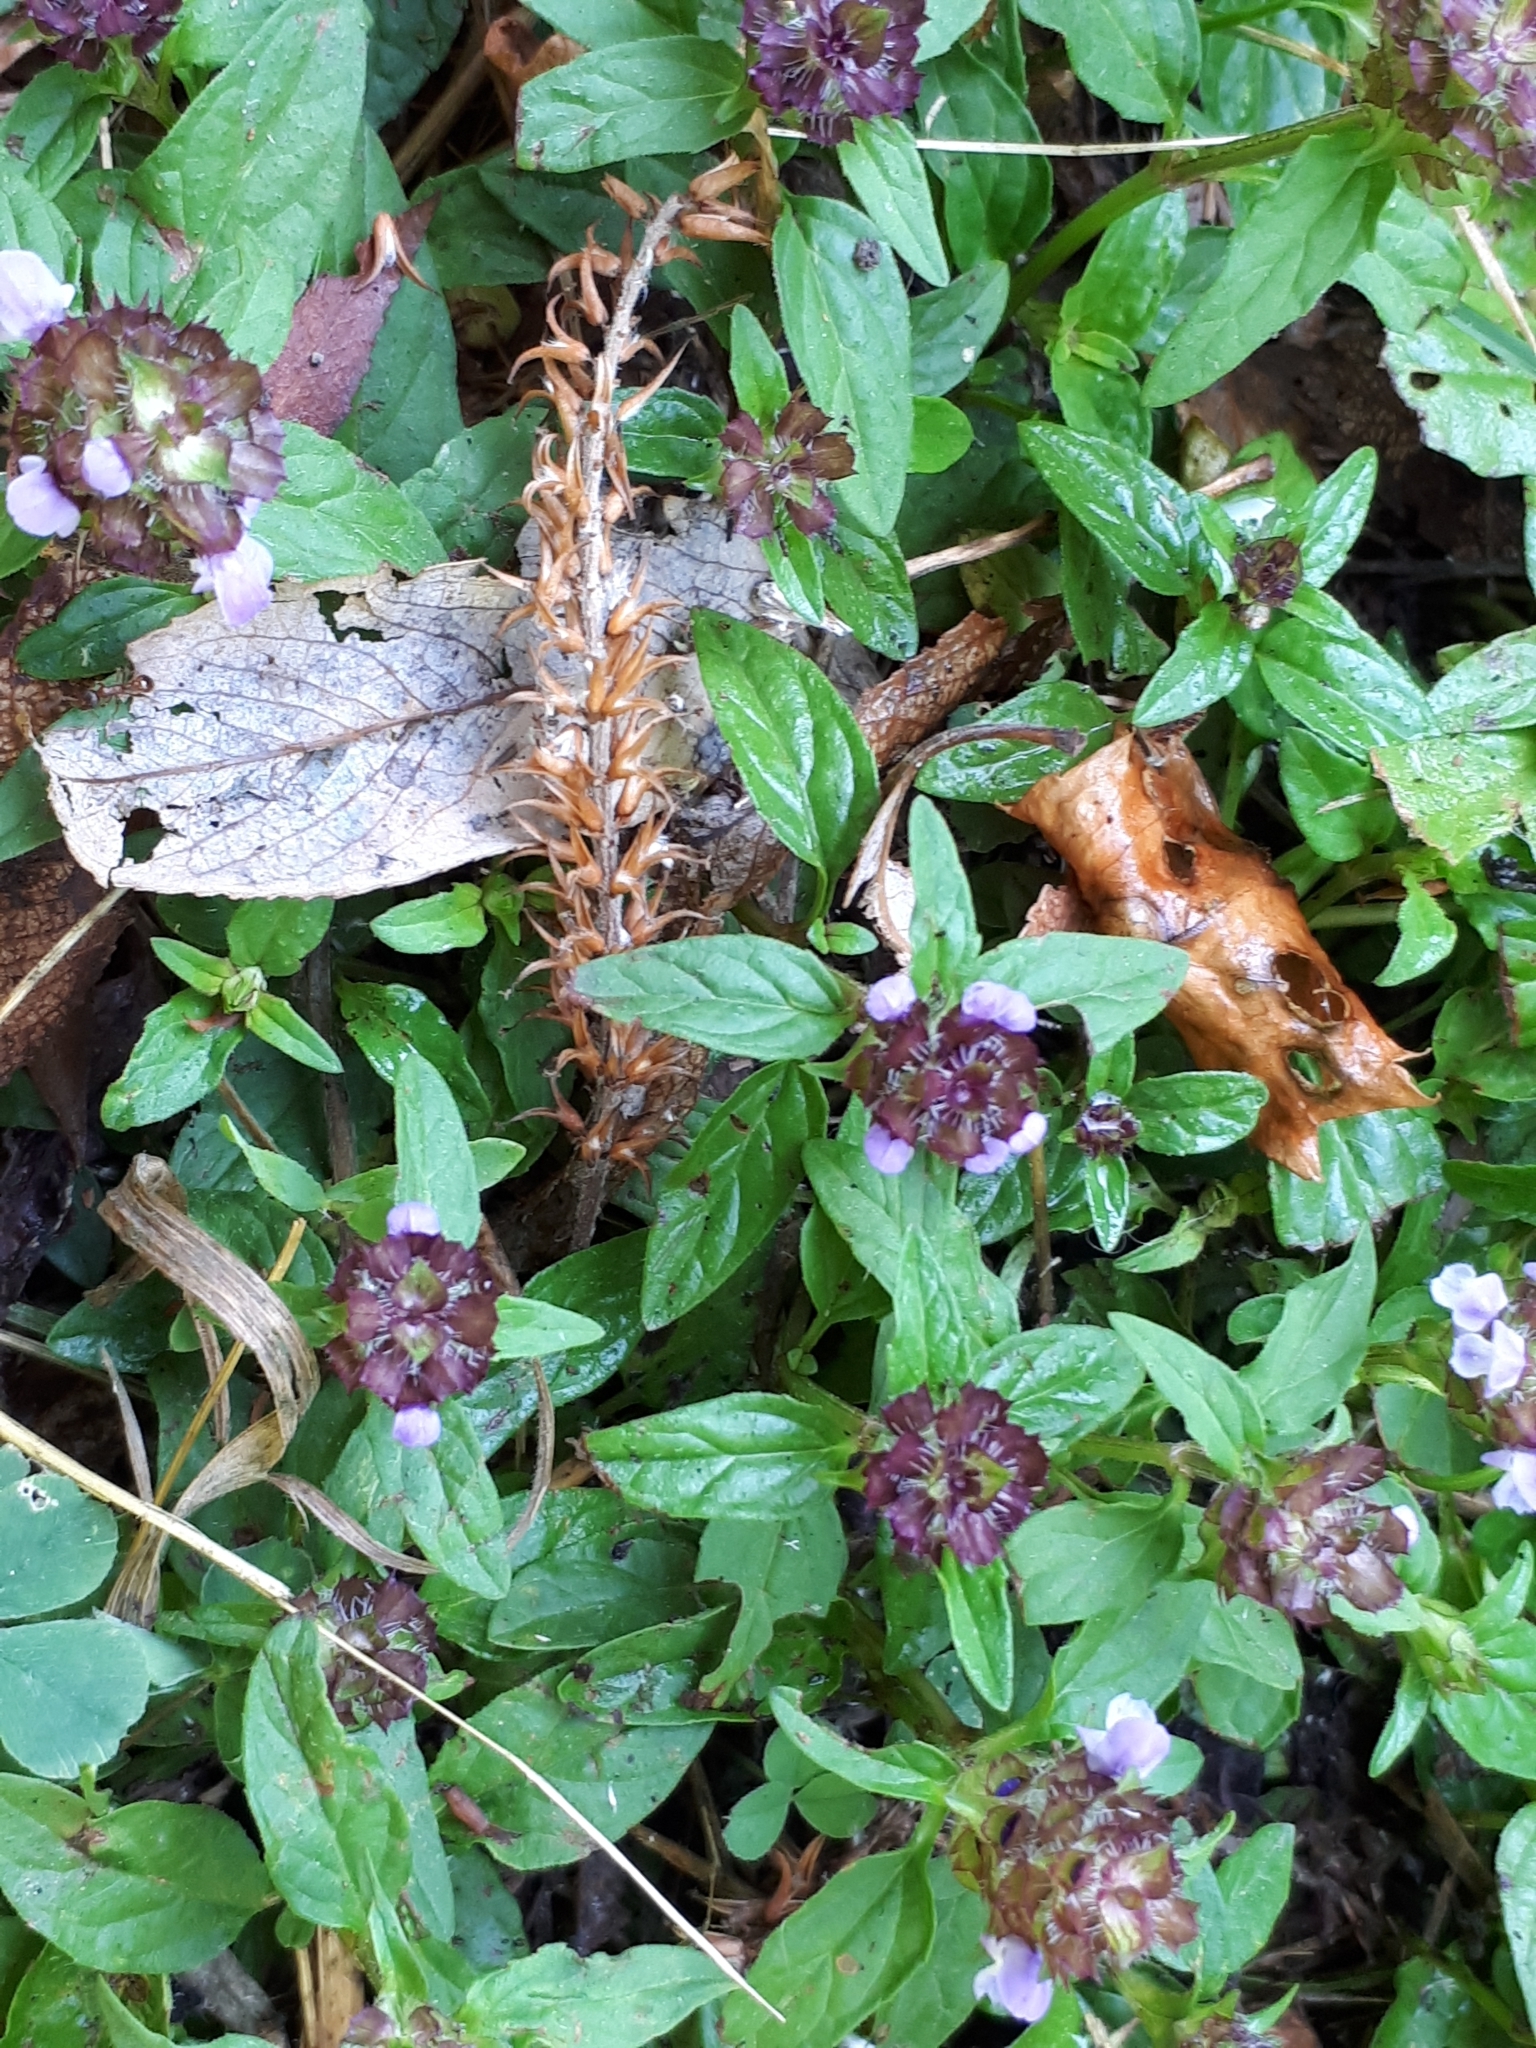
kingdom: Plantae
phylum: Tracheophyta
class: Magnoliopsida
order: Lamiales
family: Lamiaceae
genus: Prunella
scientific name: Prunella vulgaris
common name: Heal-all
